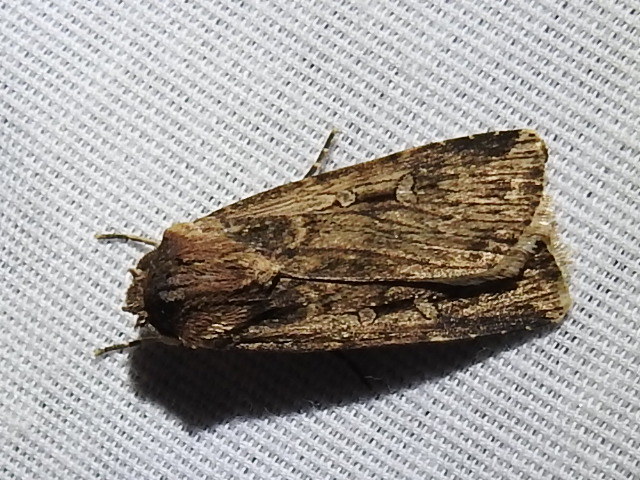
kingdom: Animalia
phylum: Arthropoda
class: Insecta
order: Lepidoptera
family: Noctuidae
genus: Feltia
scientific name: Feltia subterranea
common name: Granulate cutworm
